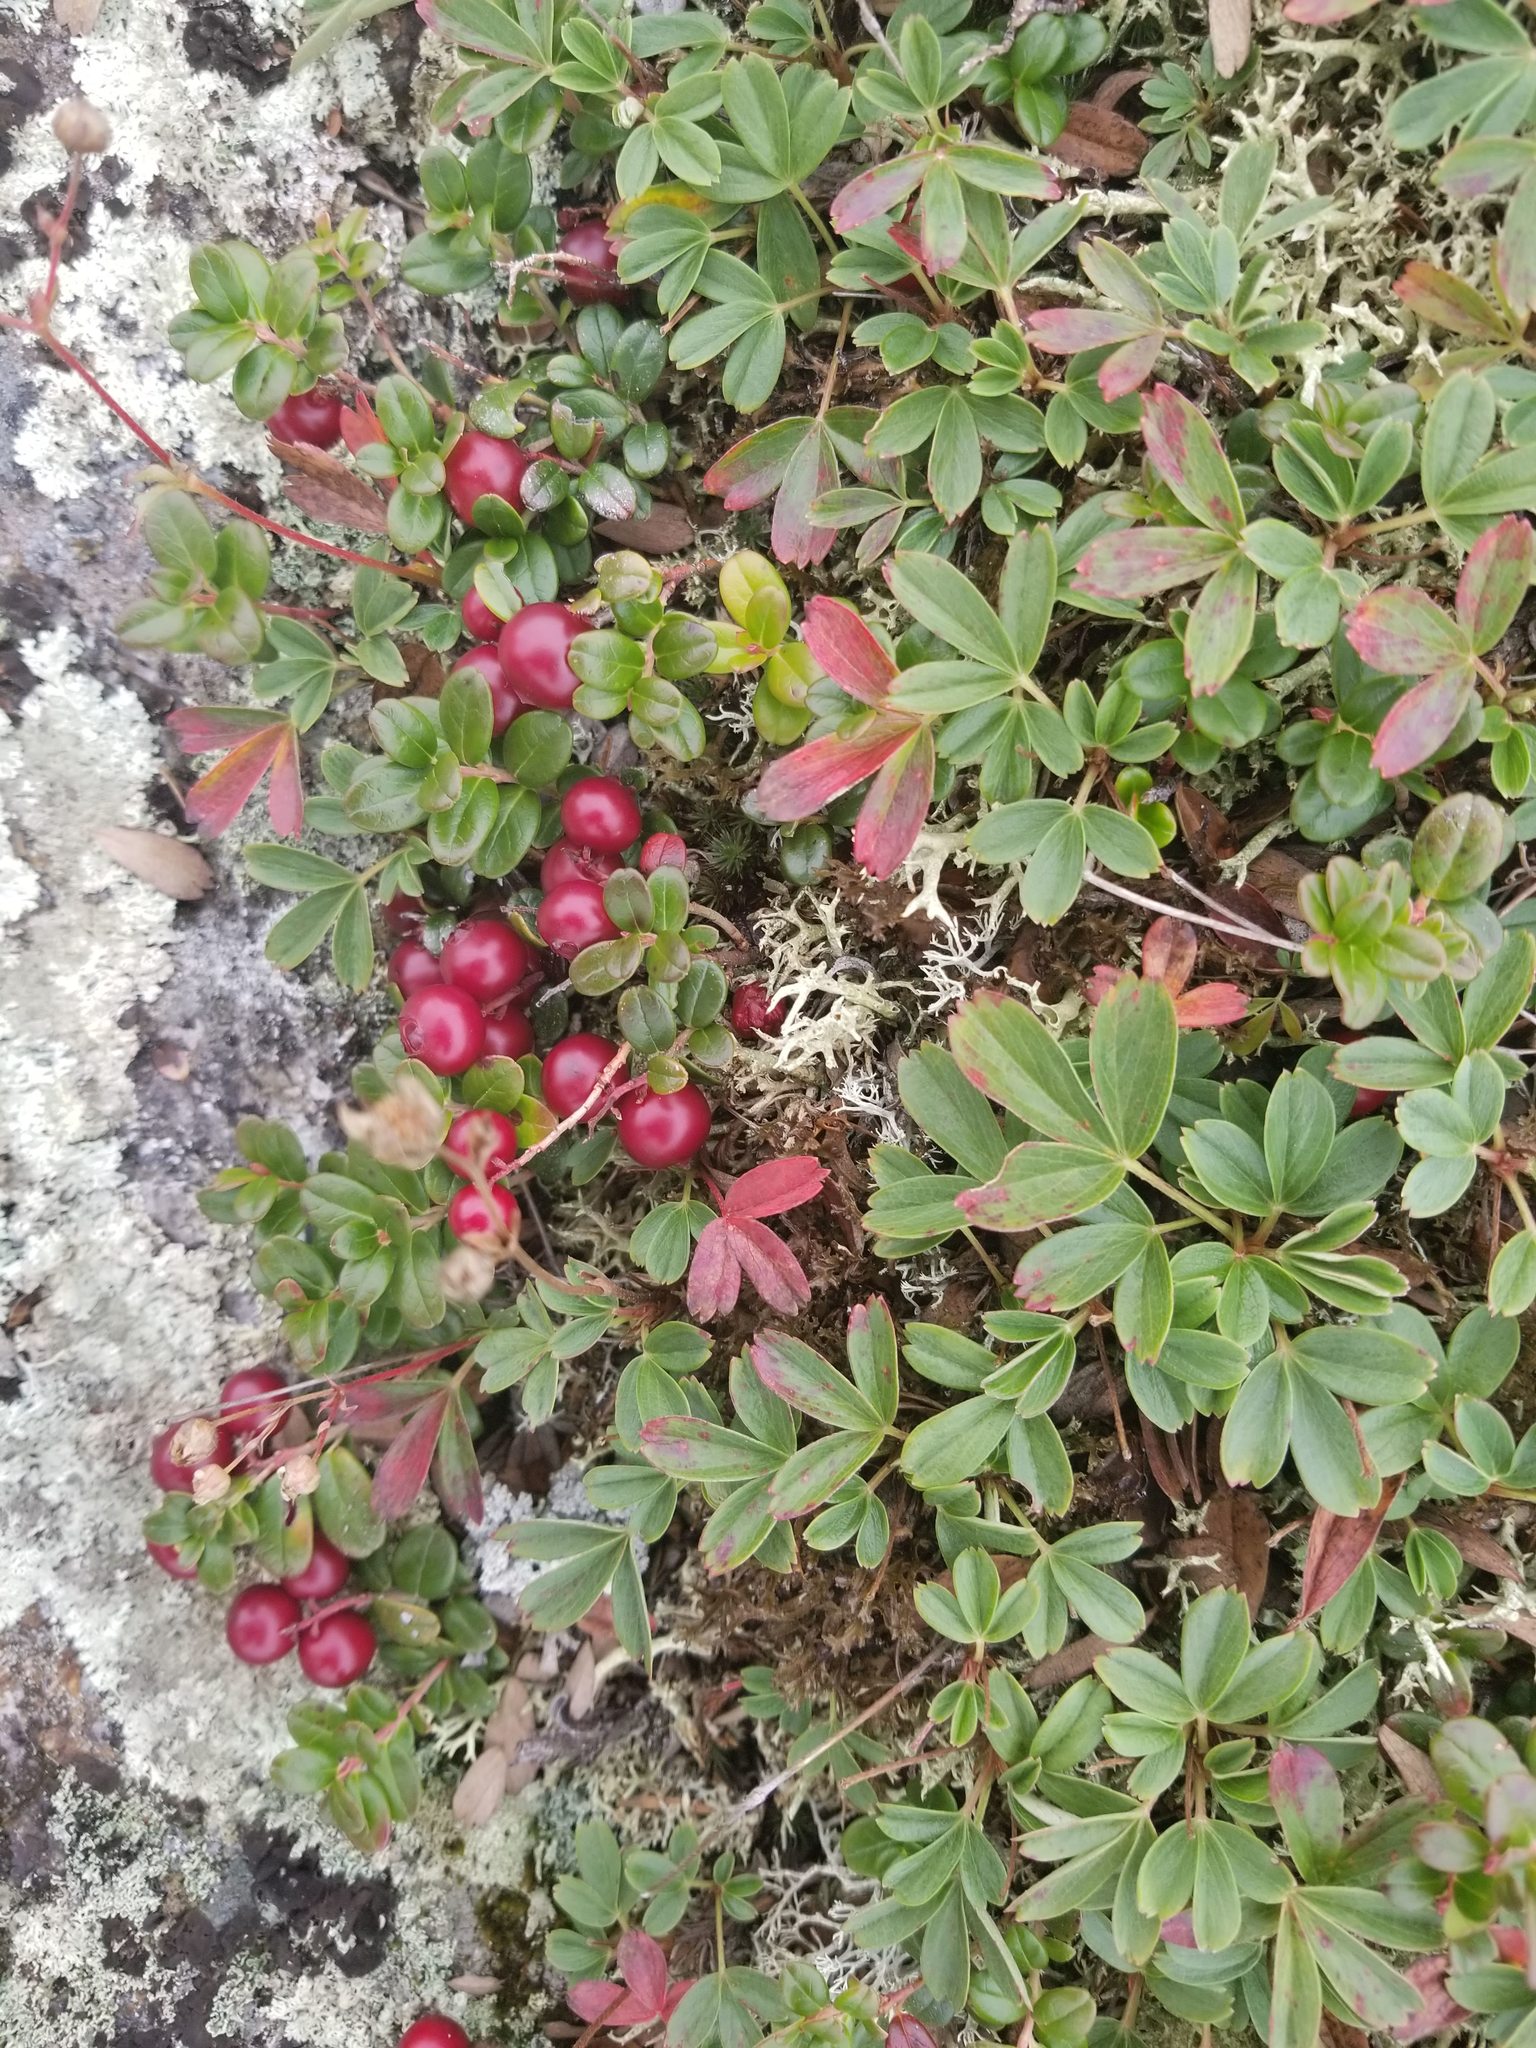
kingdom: Plantae
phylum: Tracheophyta
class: Magnoliopsida
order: Ericales
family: Ericaceae
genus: Vaccinium
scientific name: Vaccinium vitis-idaea
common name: Cowberry
